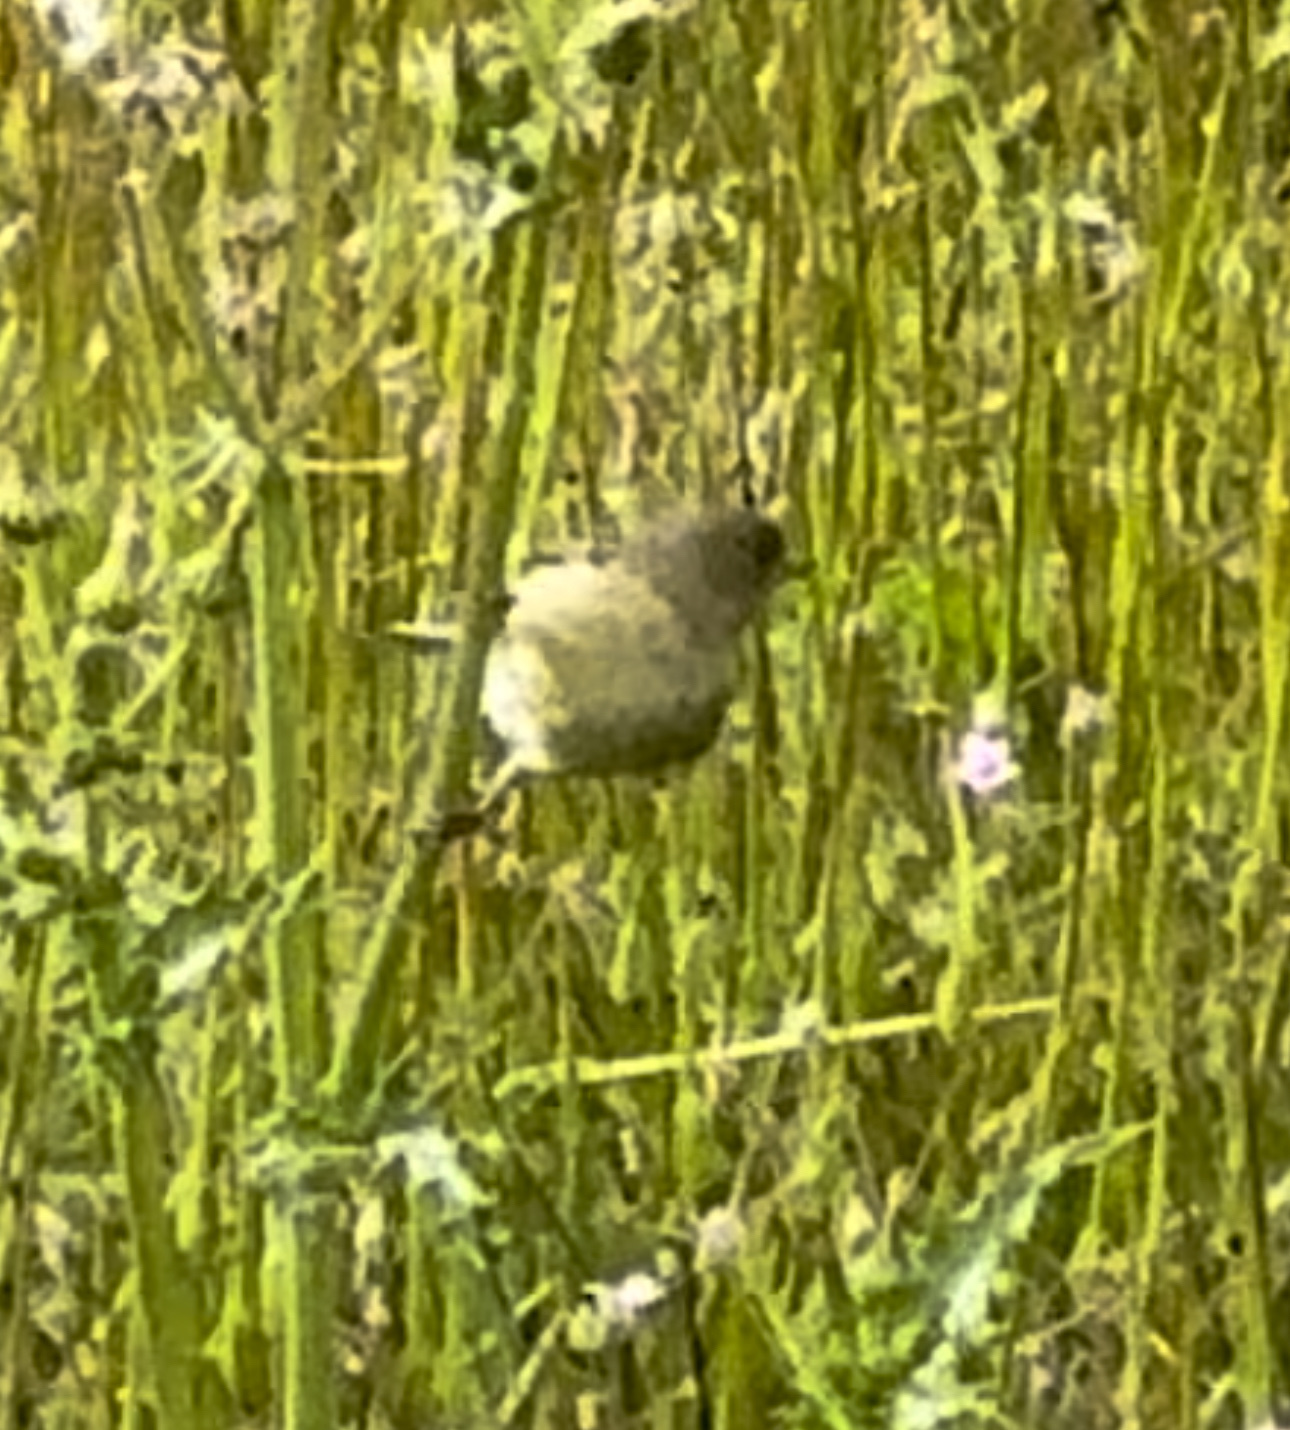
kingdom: Animalia
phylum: Chordata
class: Aves
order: Passeriformes
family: Fringillidae
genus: Spinus
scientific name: Spinus psaltria
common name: Lesser goldfinch
